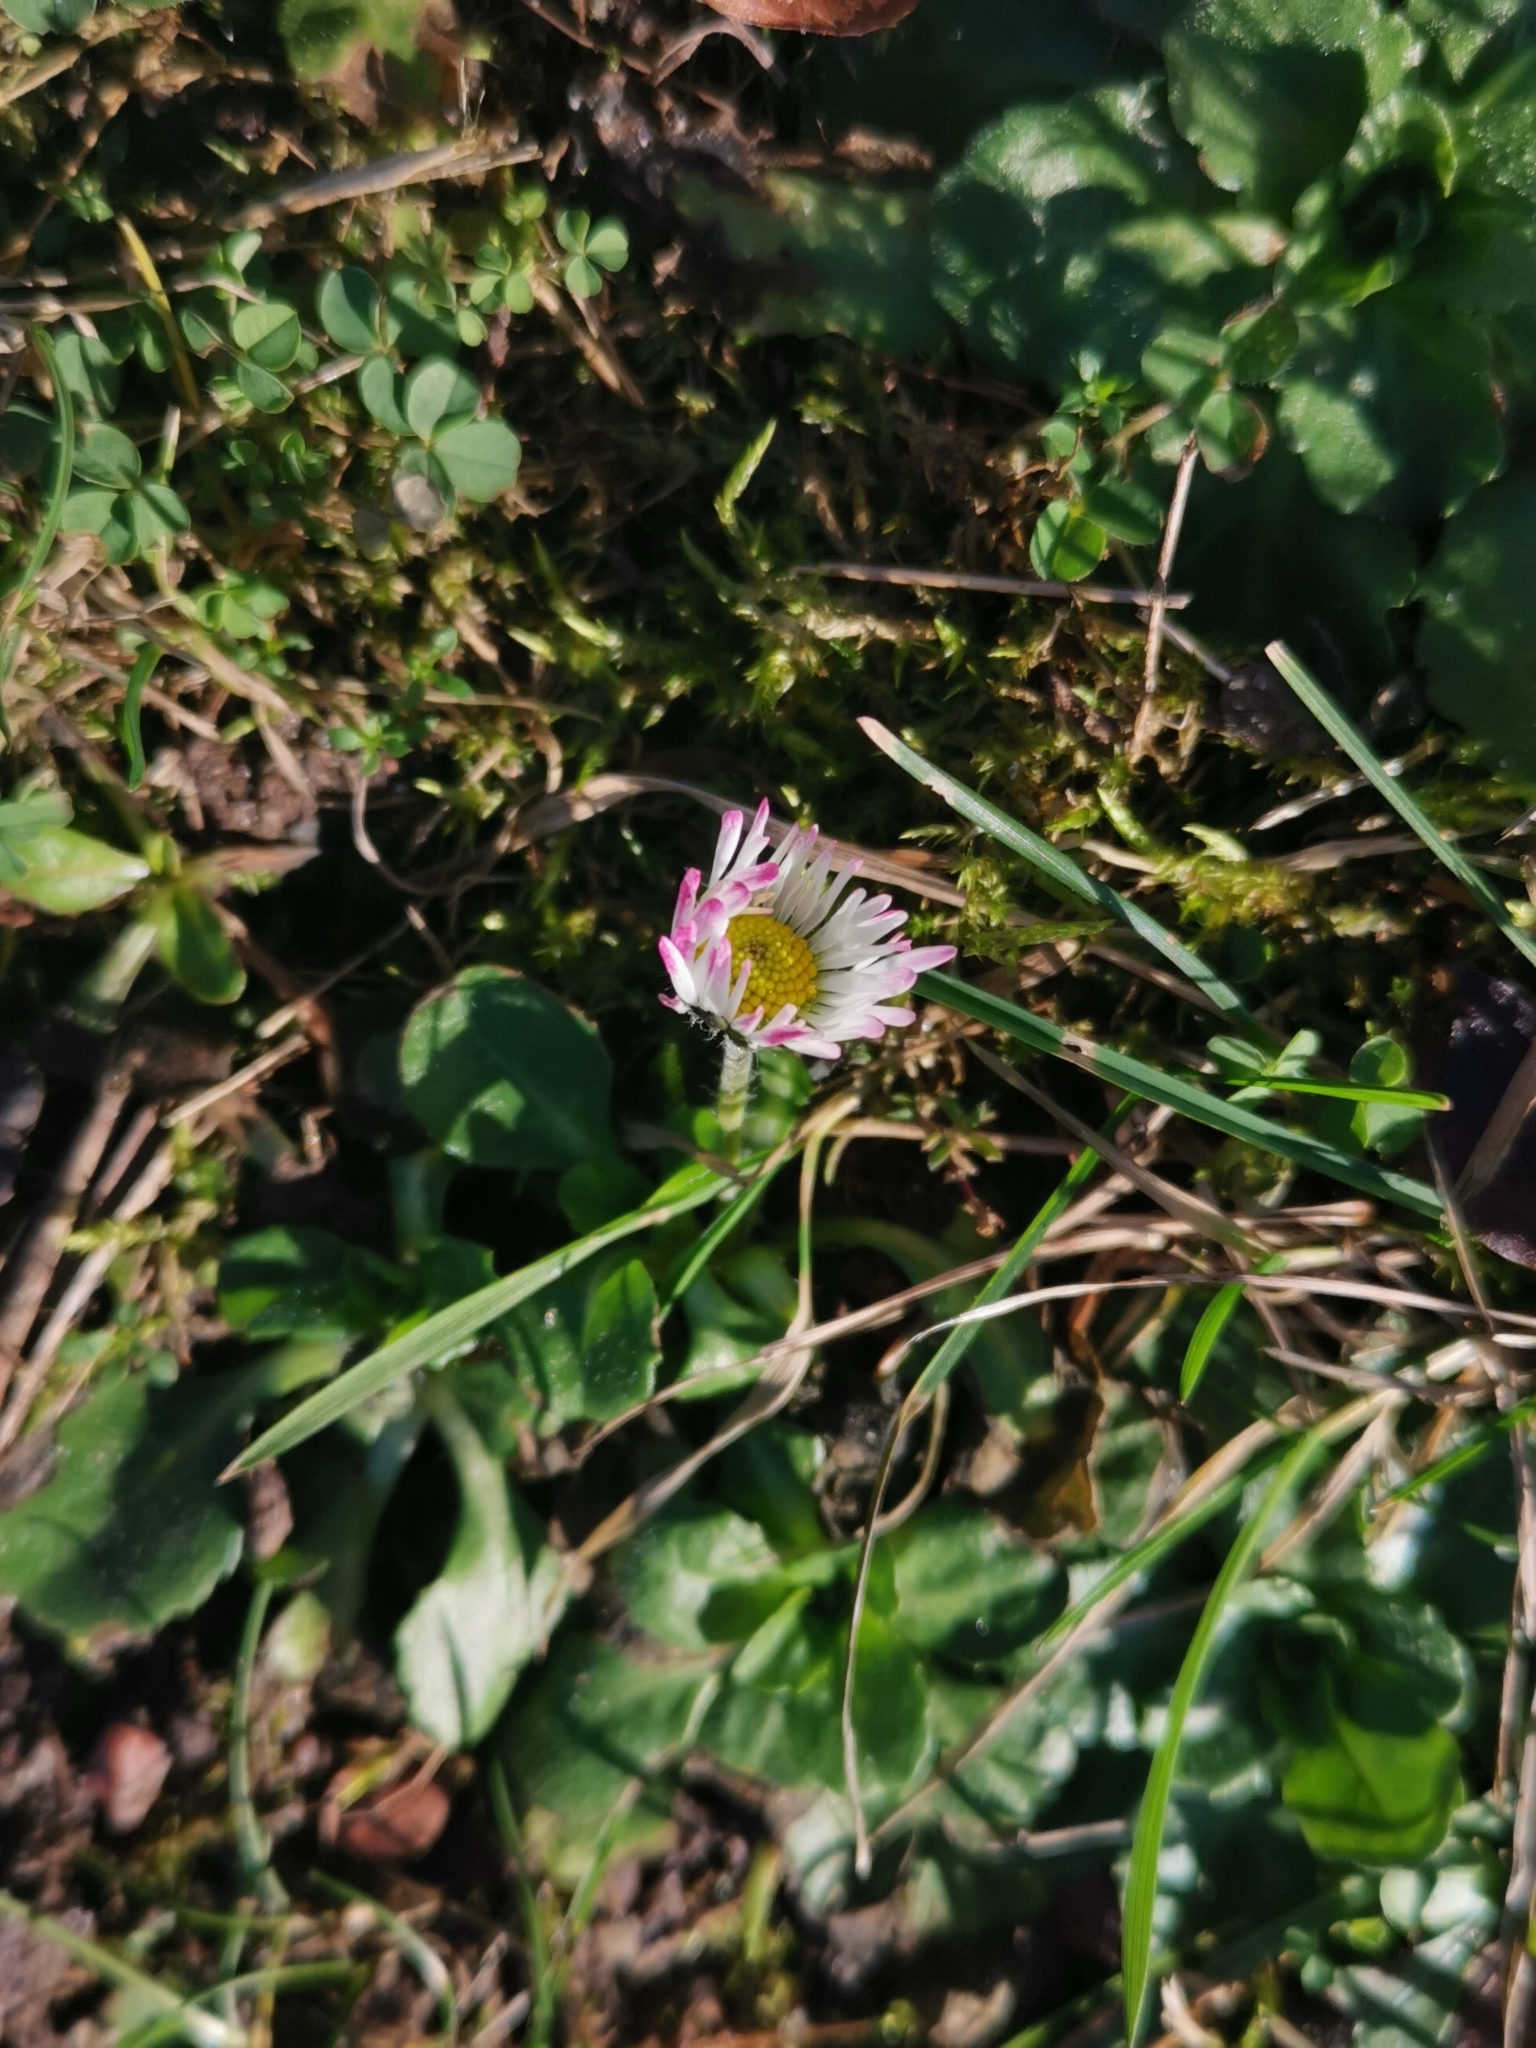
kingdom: Plantae
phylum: Tracheophyta
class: Magnoliopsida
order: Asterales
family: Asteraceae
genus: Bellis
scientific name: Bellis perennis
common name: Lawndaisy
